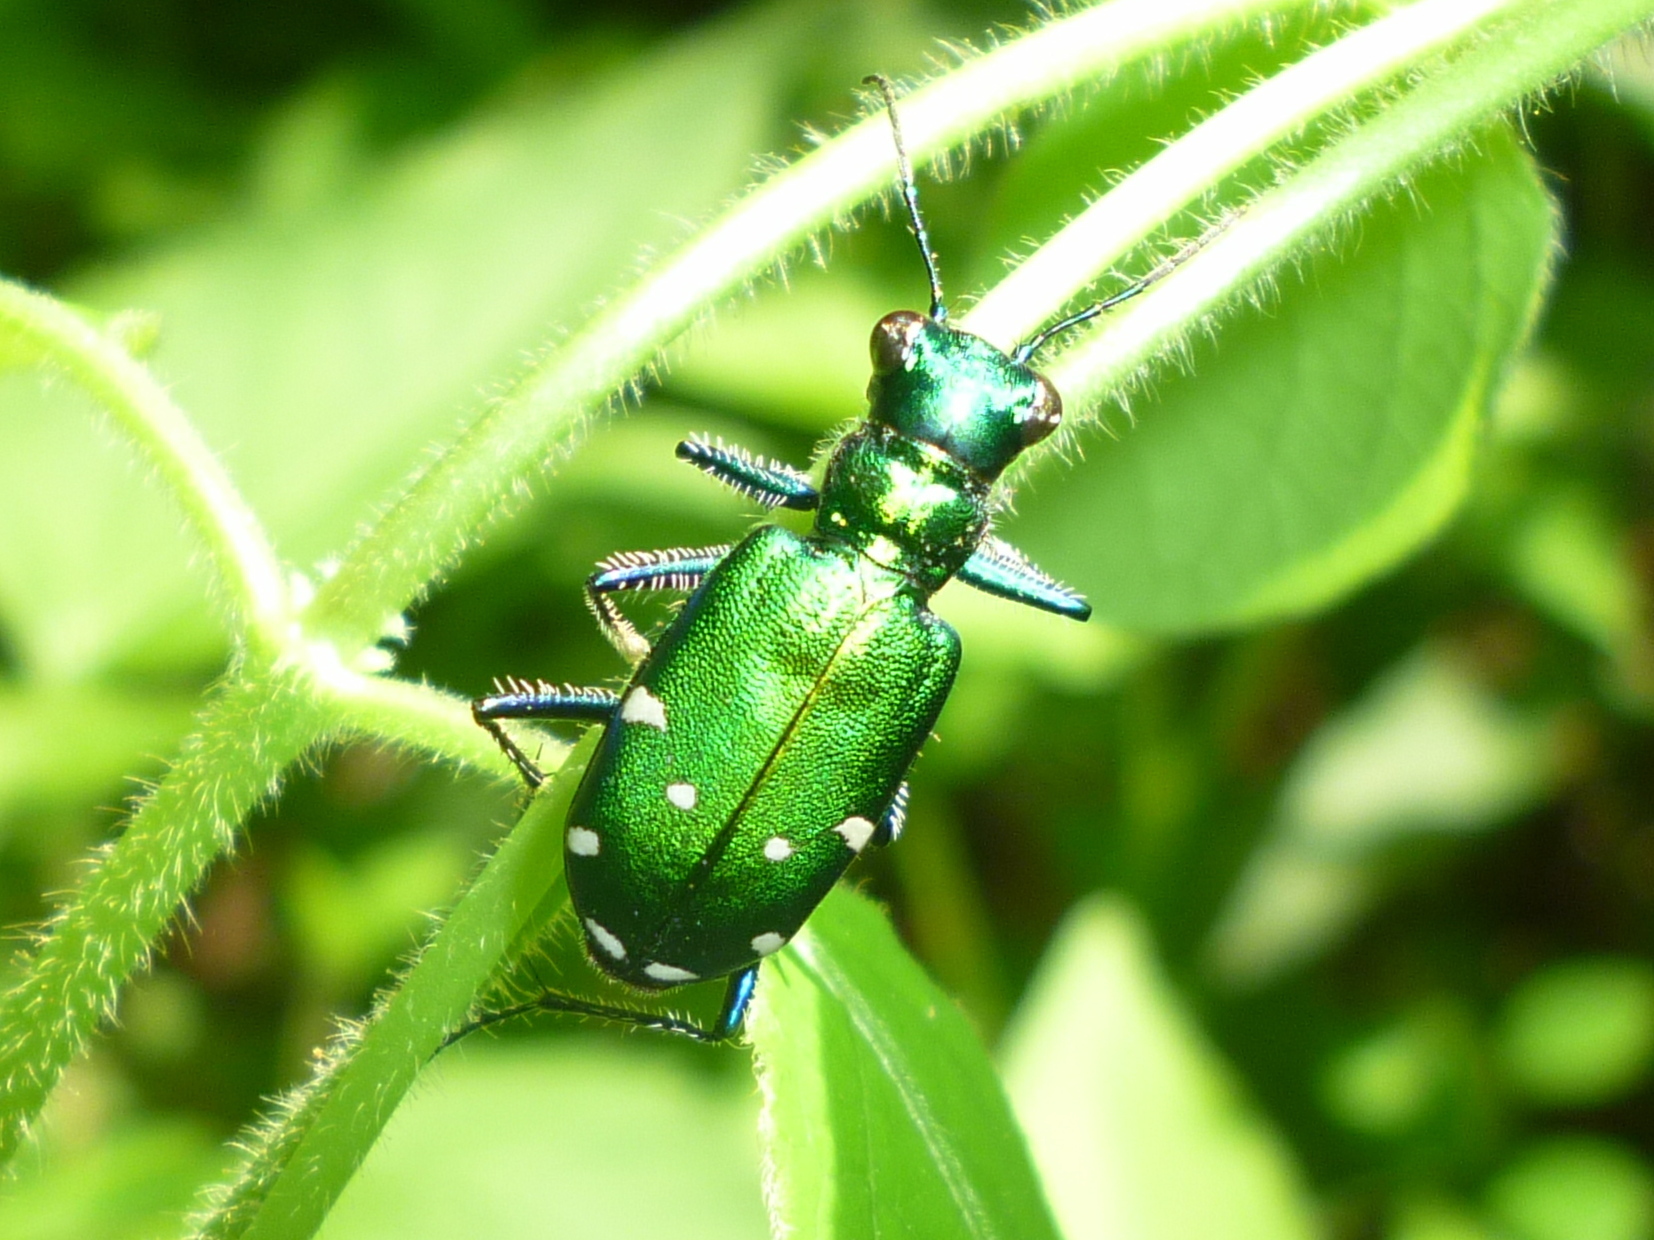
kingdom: Animalia
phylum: Arthropoda
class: Insecta
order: Coleoptera
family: Carabidae
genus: Cicindela
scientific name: Cicindela sexguttata
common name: Six-spotted tiger beetle
